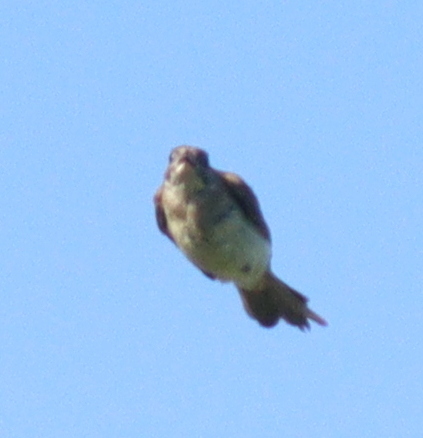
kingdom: Animalia
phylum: Chordata
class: Aves
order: Passeriformes
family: Pycnonotidae
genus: Pycnonotus
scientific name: Pycnonotus sinensis
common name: Light-vented bulbul
